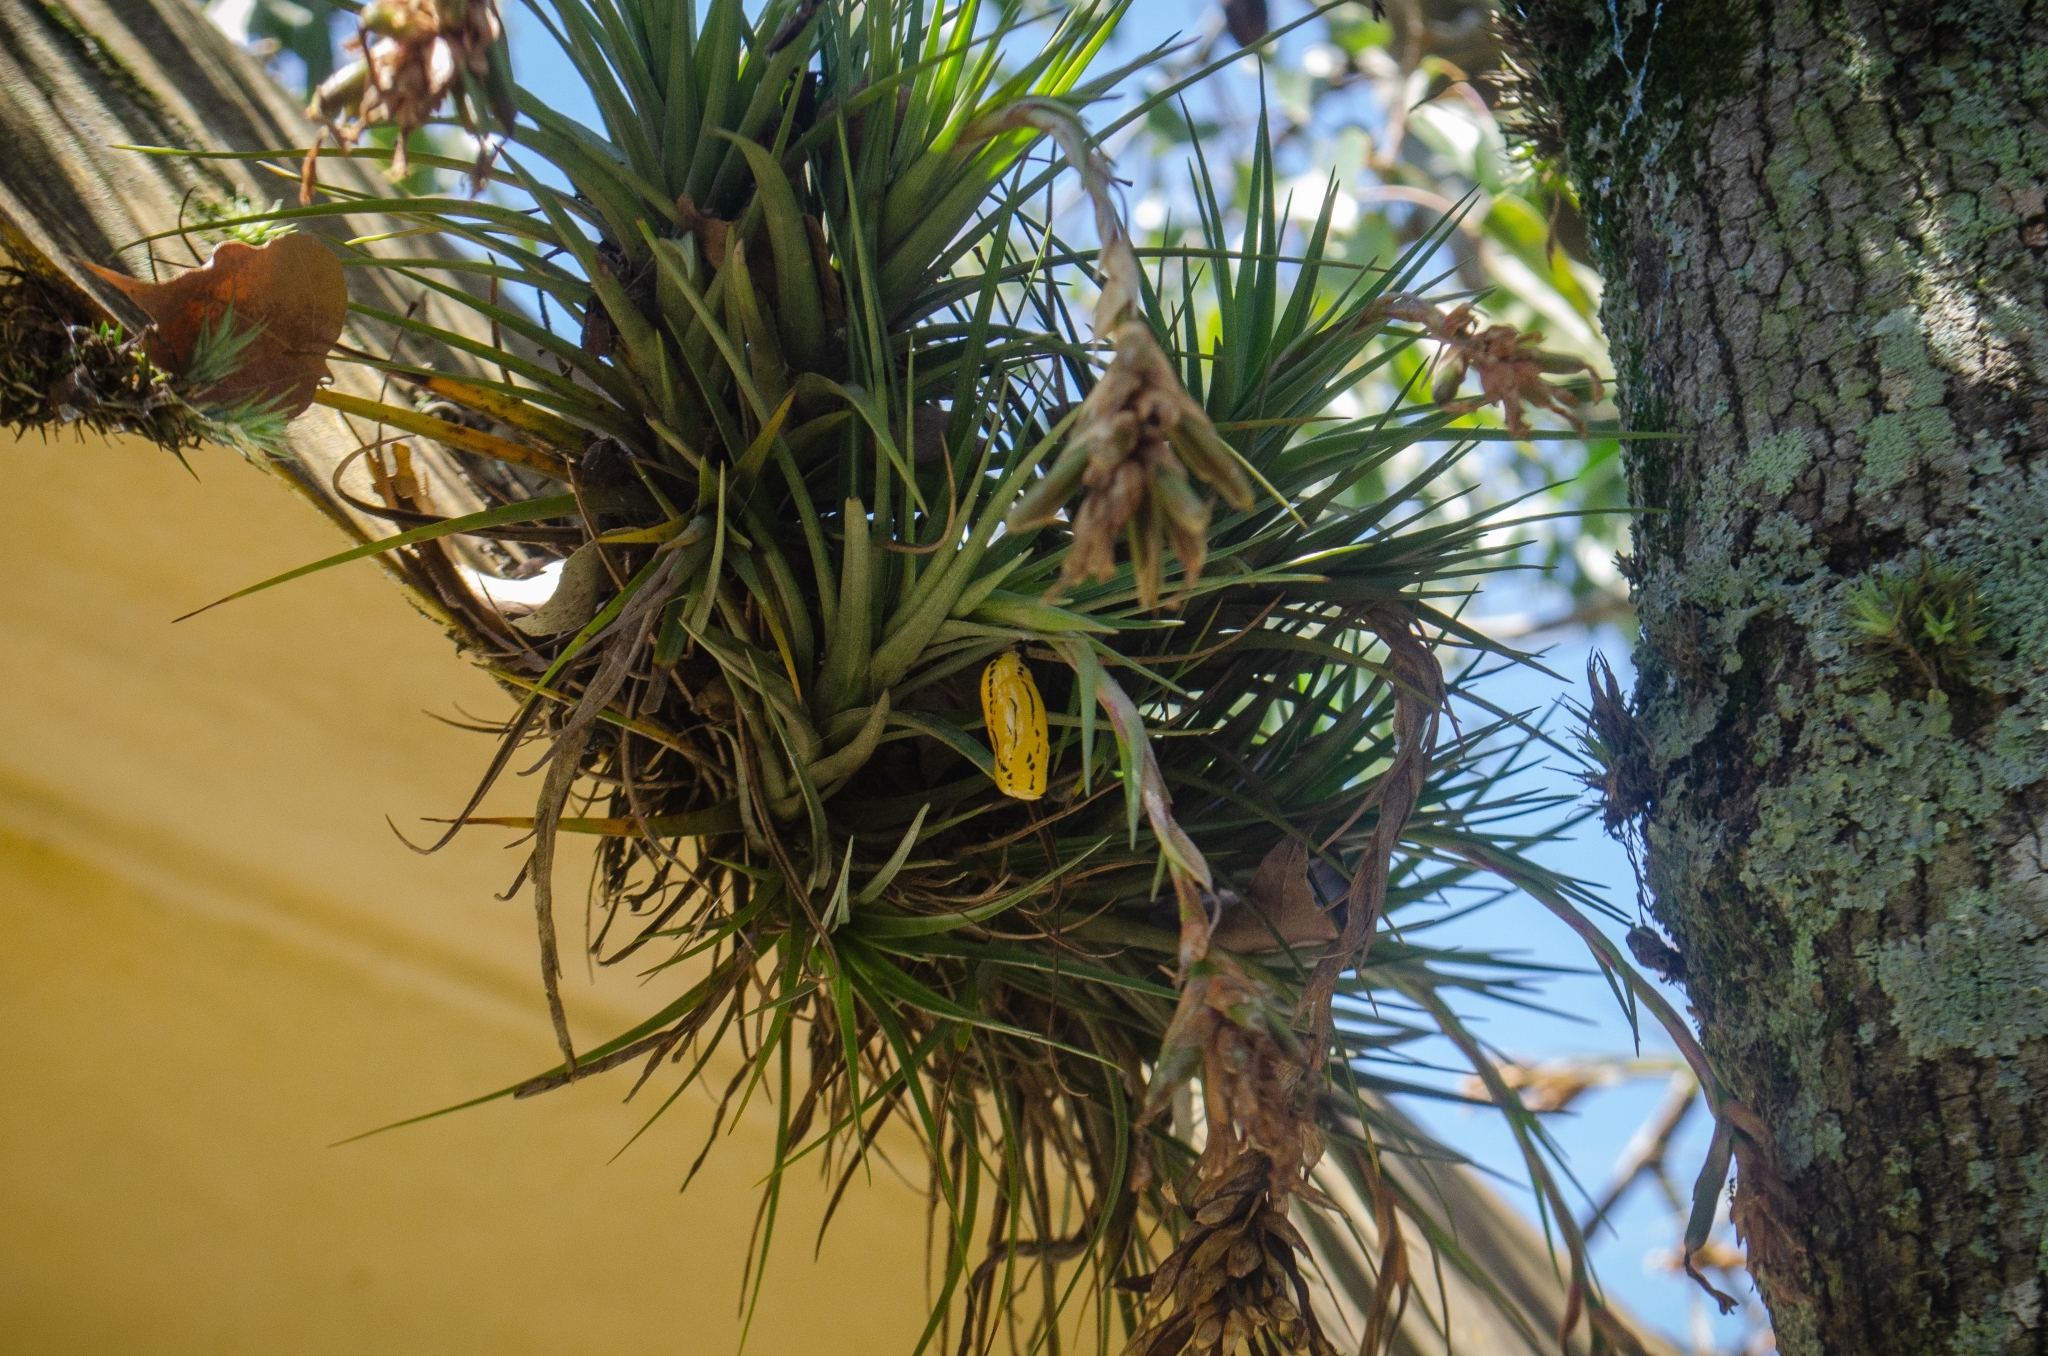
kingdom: Animalia
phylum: Arthropoda
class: Insecta
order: Lepidoptera
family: Nymphalidae
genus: Methona
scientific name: Methona themisto
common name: Themisto amberwing
